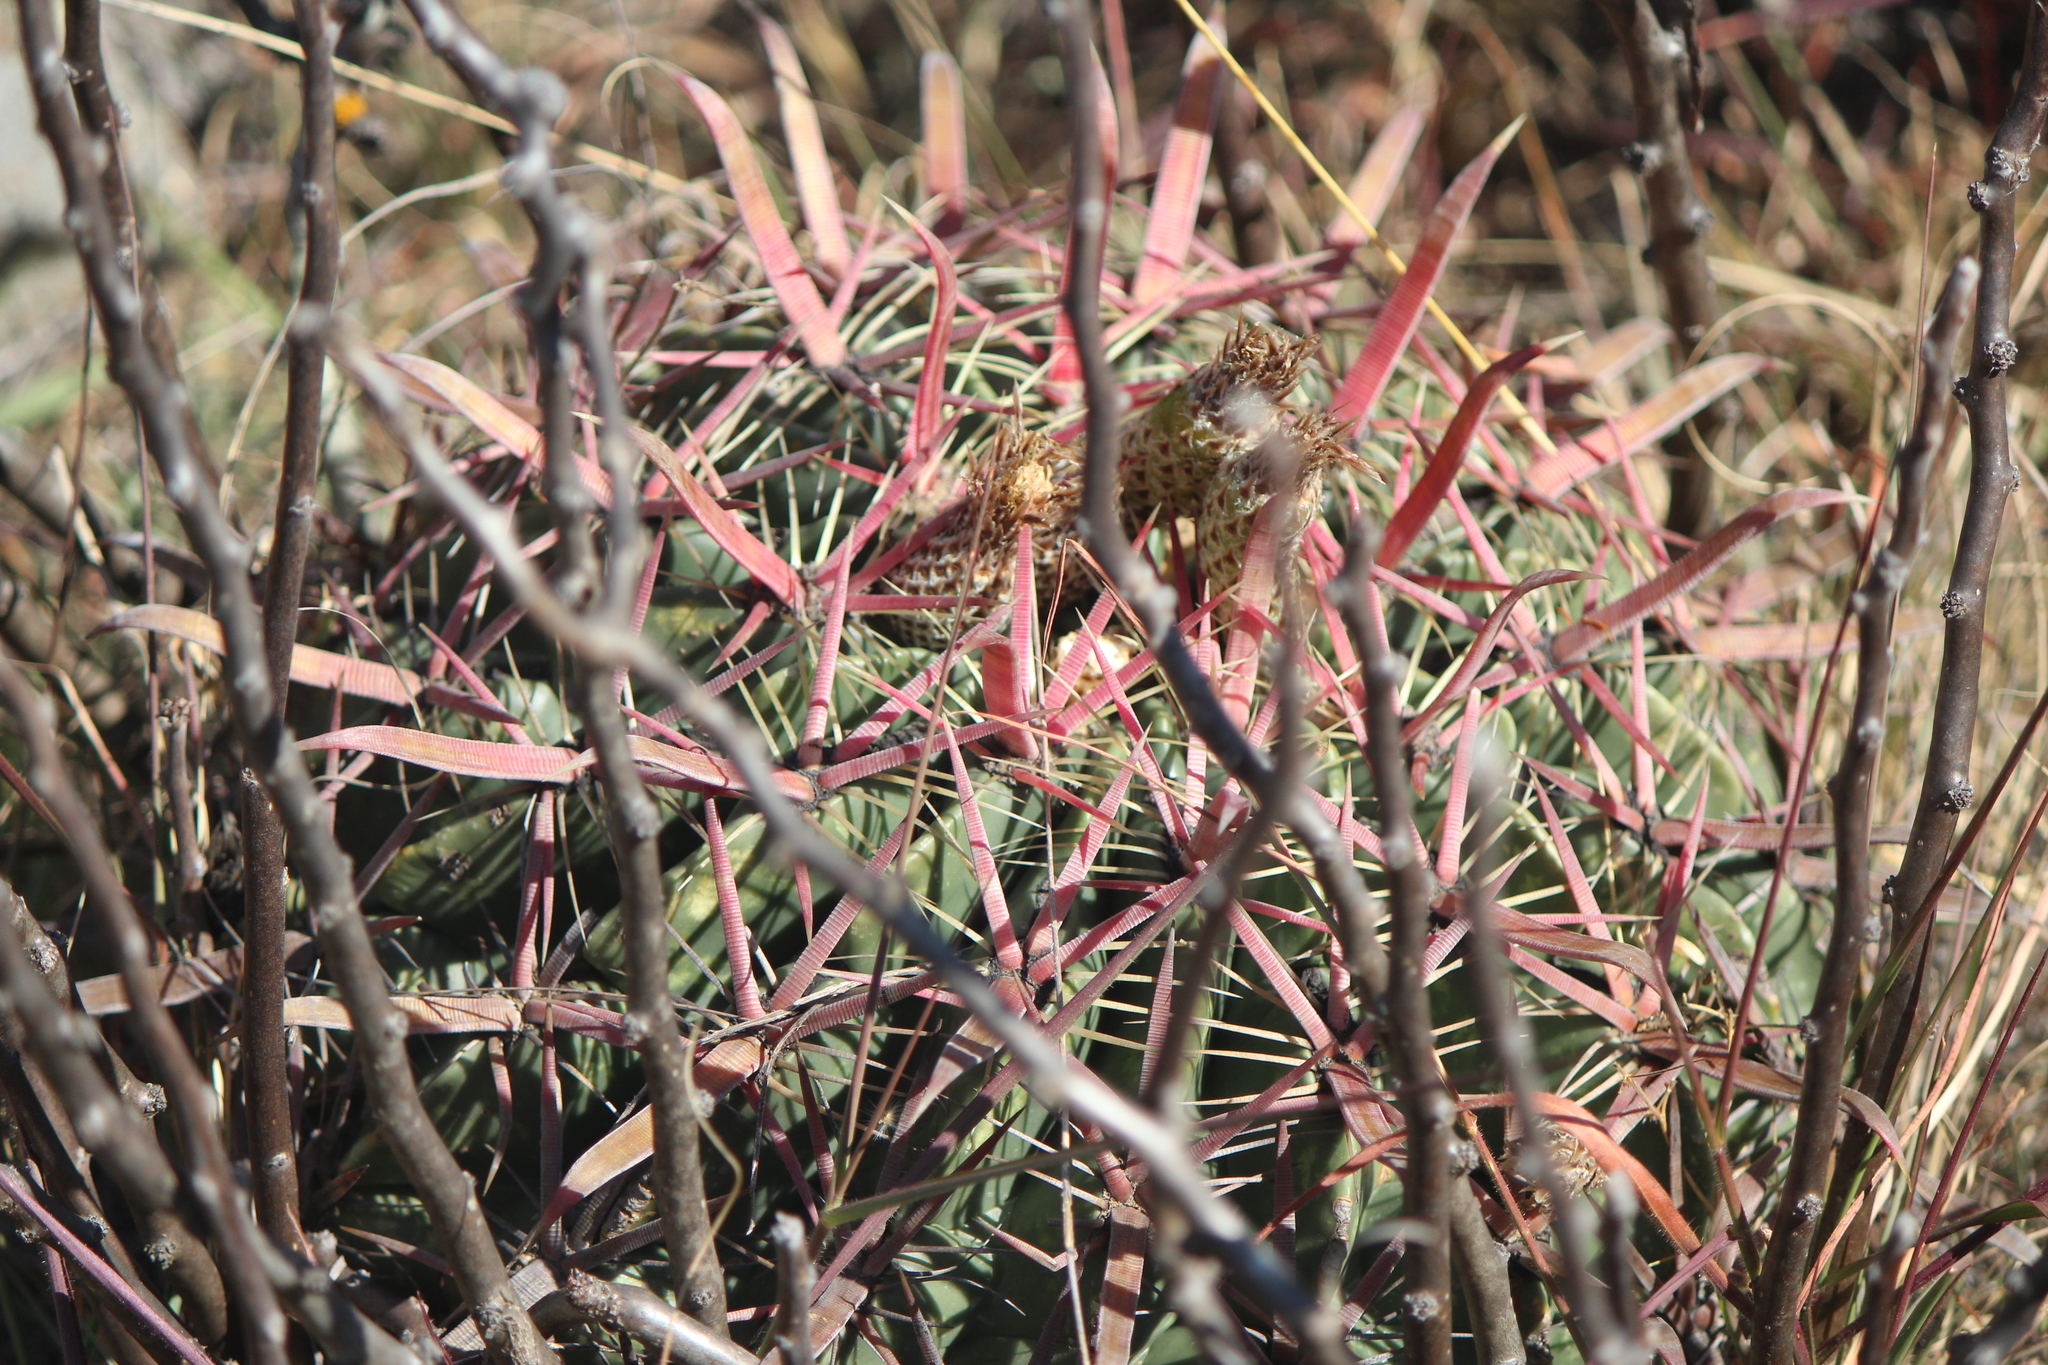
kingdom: Plantae
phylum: Tracheophyta
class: Magnoliopsida
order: Caryophyllales
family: Cactaceae
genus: Ferocactus
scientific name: Ferocactus latispinus
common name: Devil's-tongue cactus
